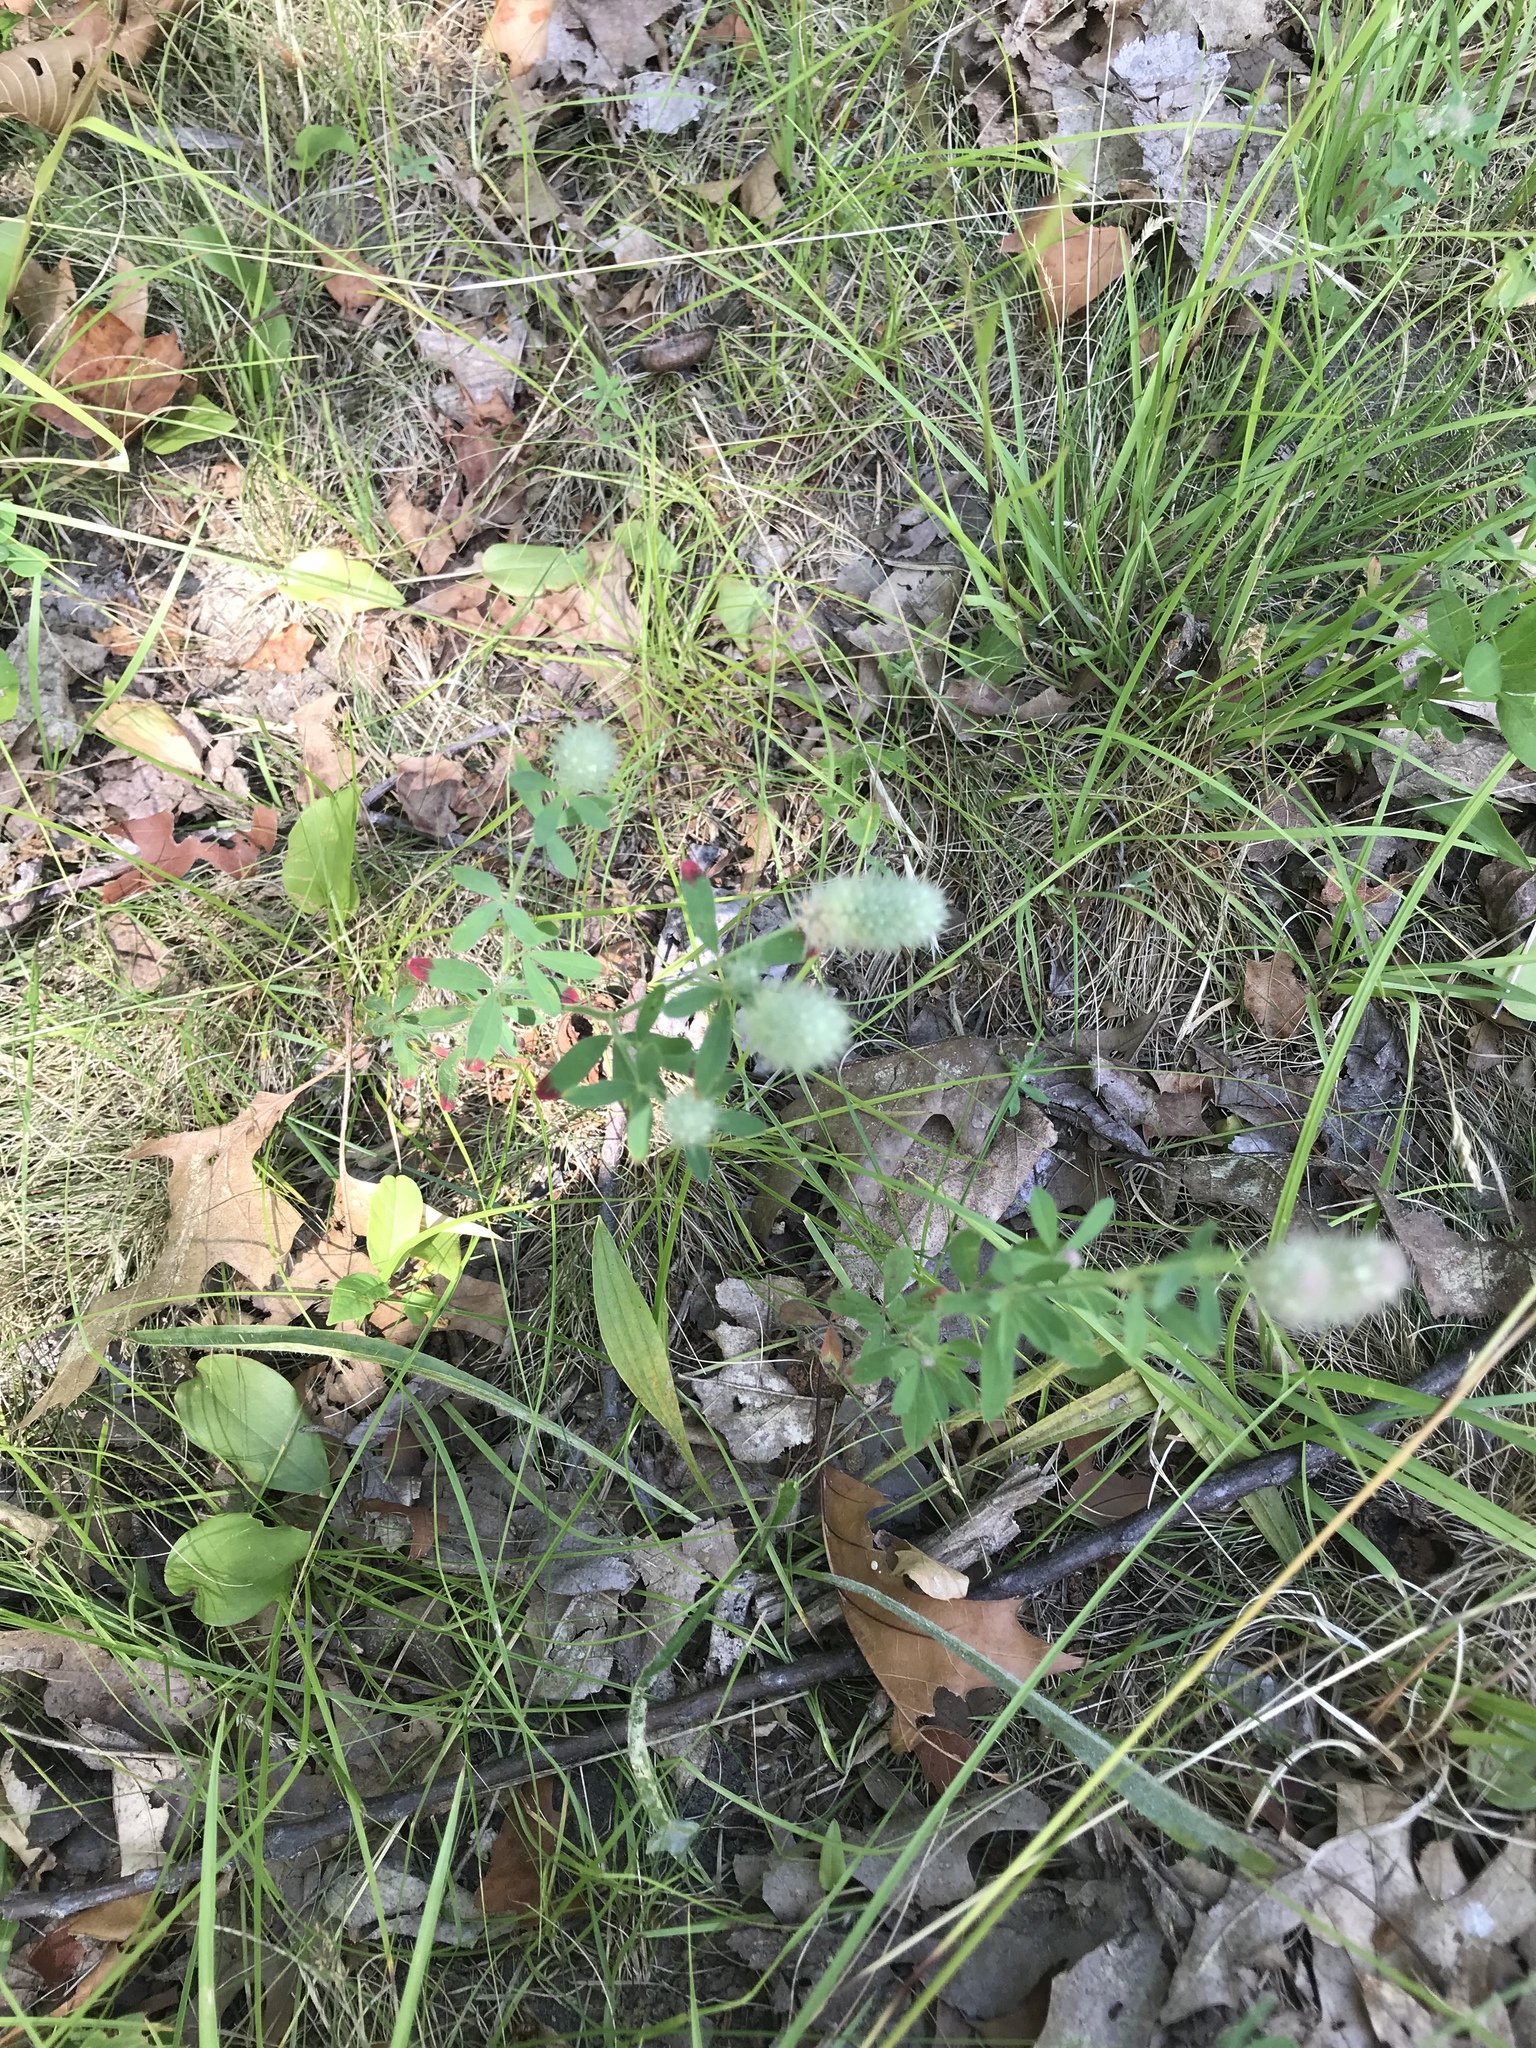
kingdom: Plantae
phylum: Tracheophyta
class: Magnoliopsida
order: Fabales
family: Fabaceae
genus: Trifolium
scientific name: Trifolium arvense
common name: Hare's-foot clover
